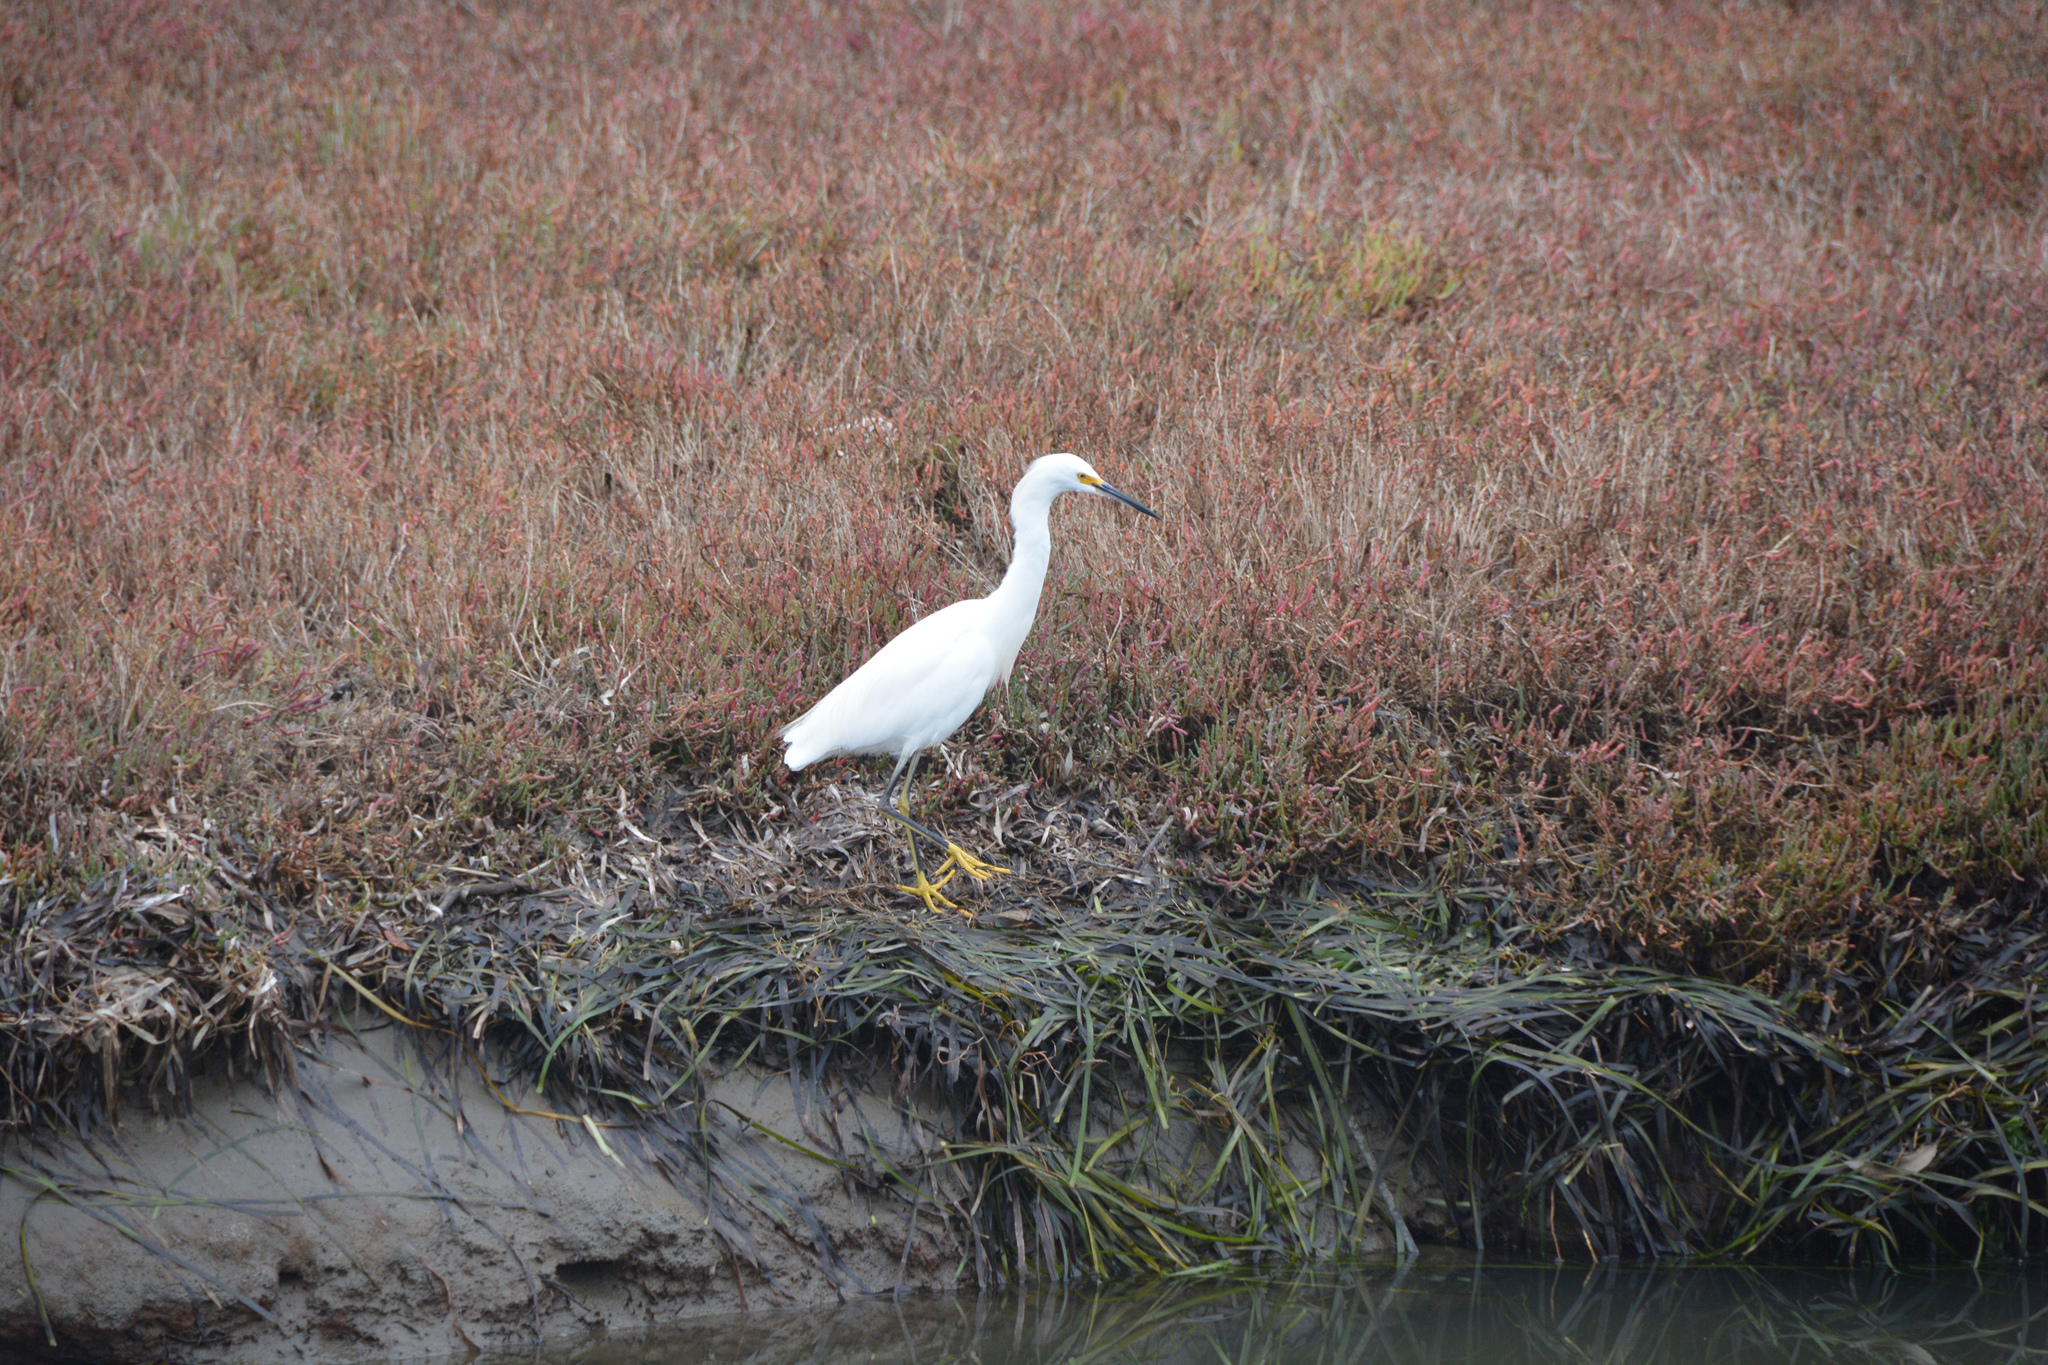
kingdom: Animalia
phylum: Chordata
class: Aves
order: Pelecaniformes
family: Ardeidae
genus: Egretta
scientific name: Egretta thula
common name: Snowy egret
